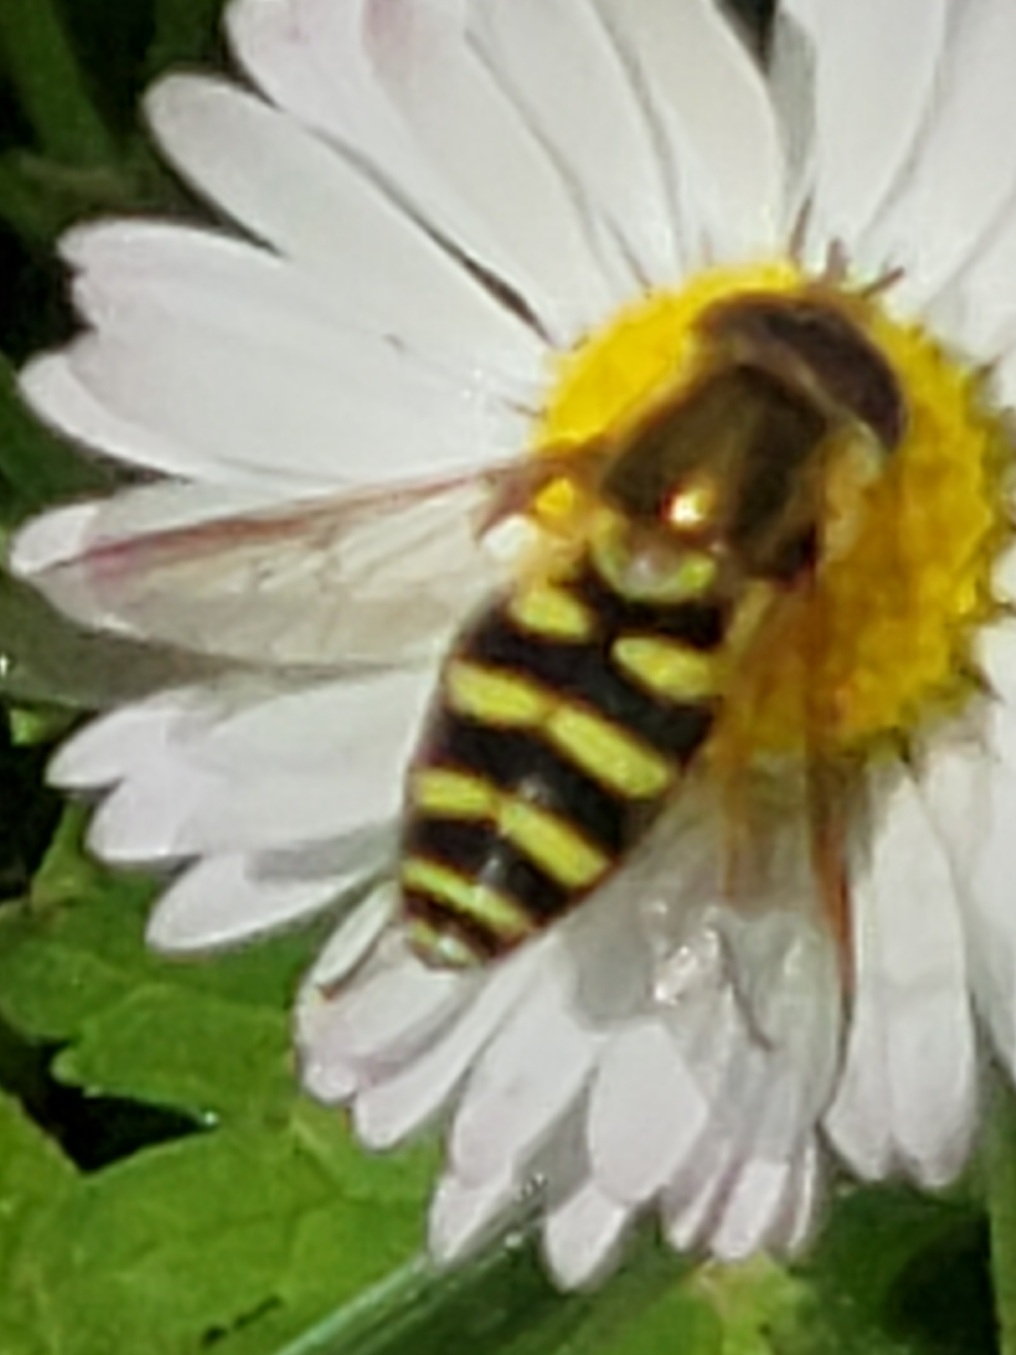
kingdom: Animalia
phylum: Arthropoda
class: Insecta
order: Diptera
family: Syrphidae
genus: Syrphus
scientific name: Syrphus opinator
